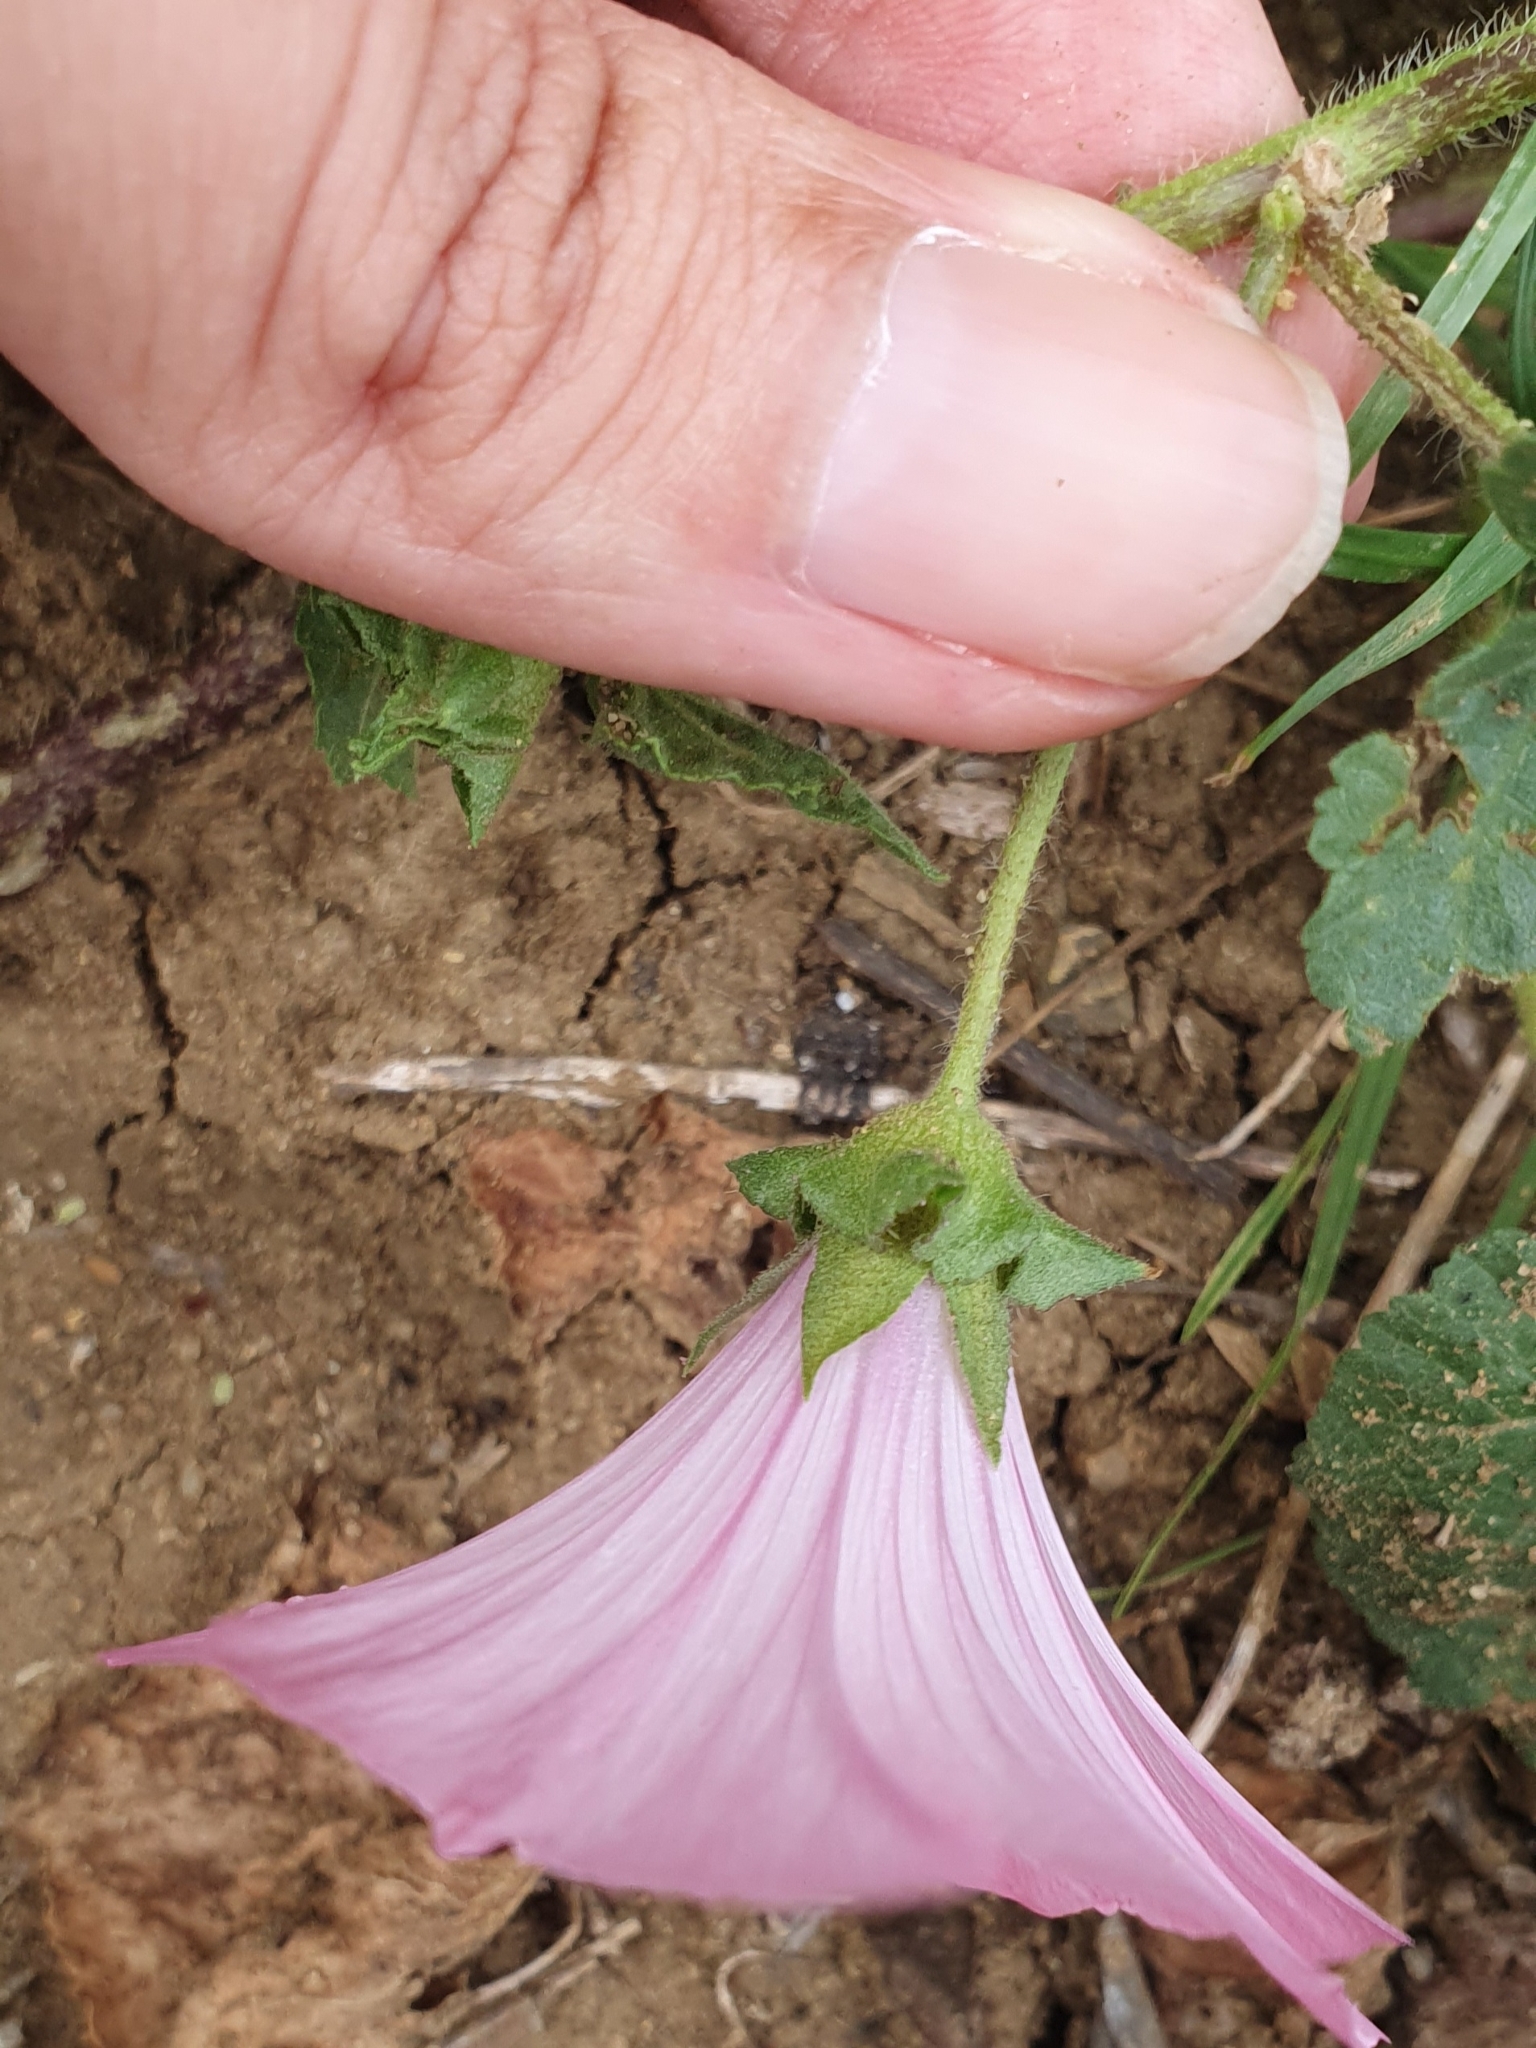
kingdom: Plantae
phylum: Tracheophyta
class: Magnoliopsida
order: Malvales
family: Malvaceae
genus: Malva
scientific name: Malva trimestris
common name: Royal mallow
